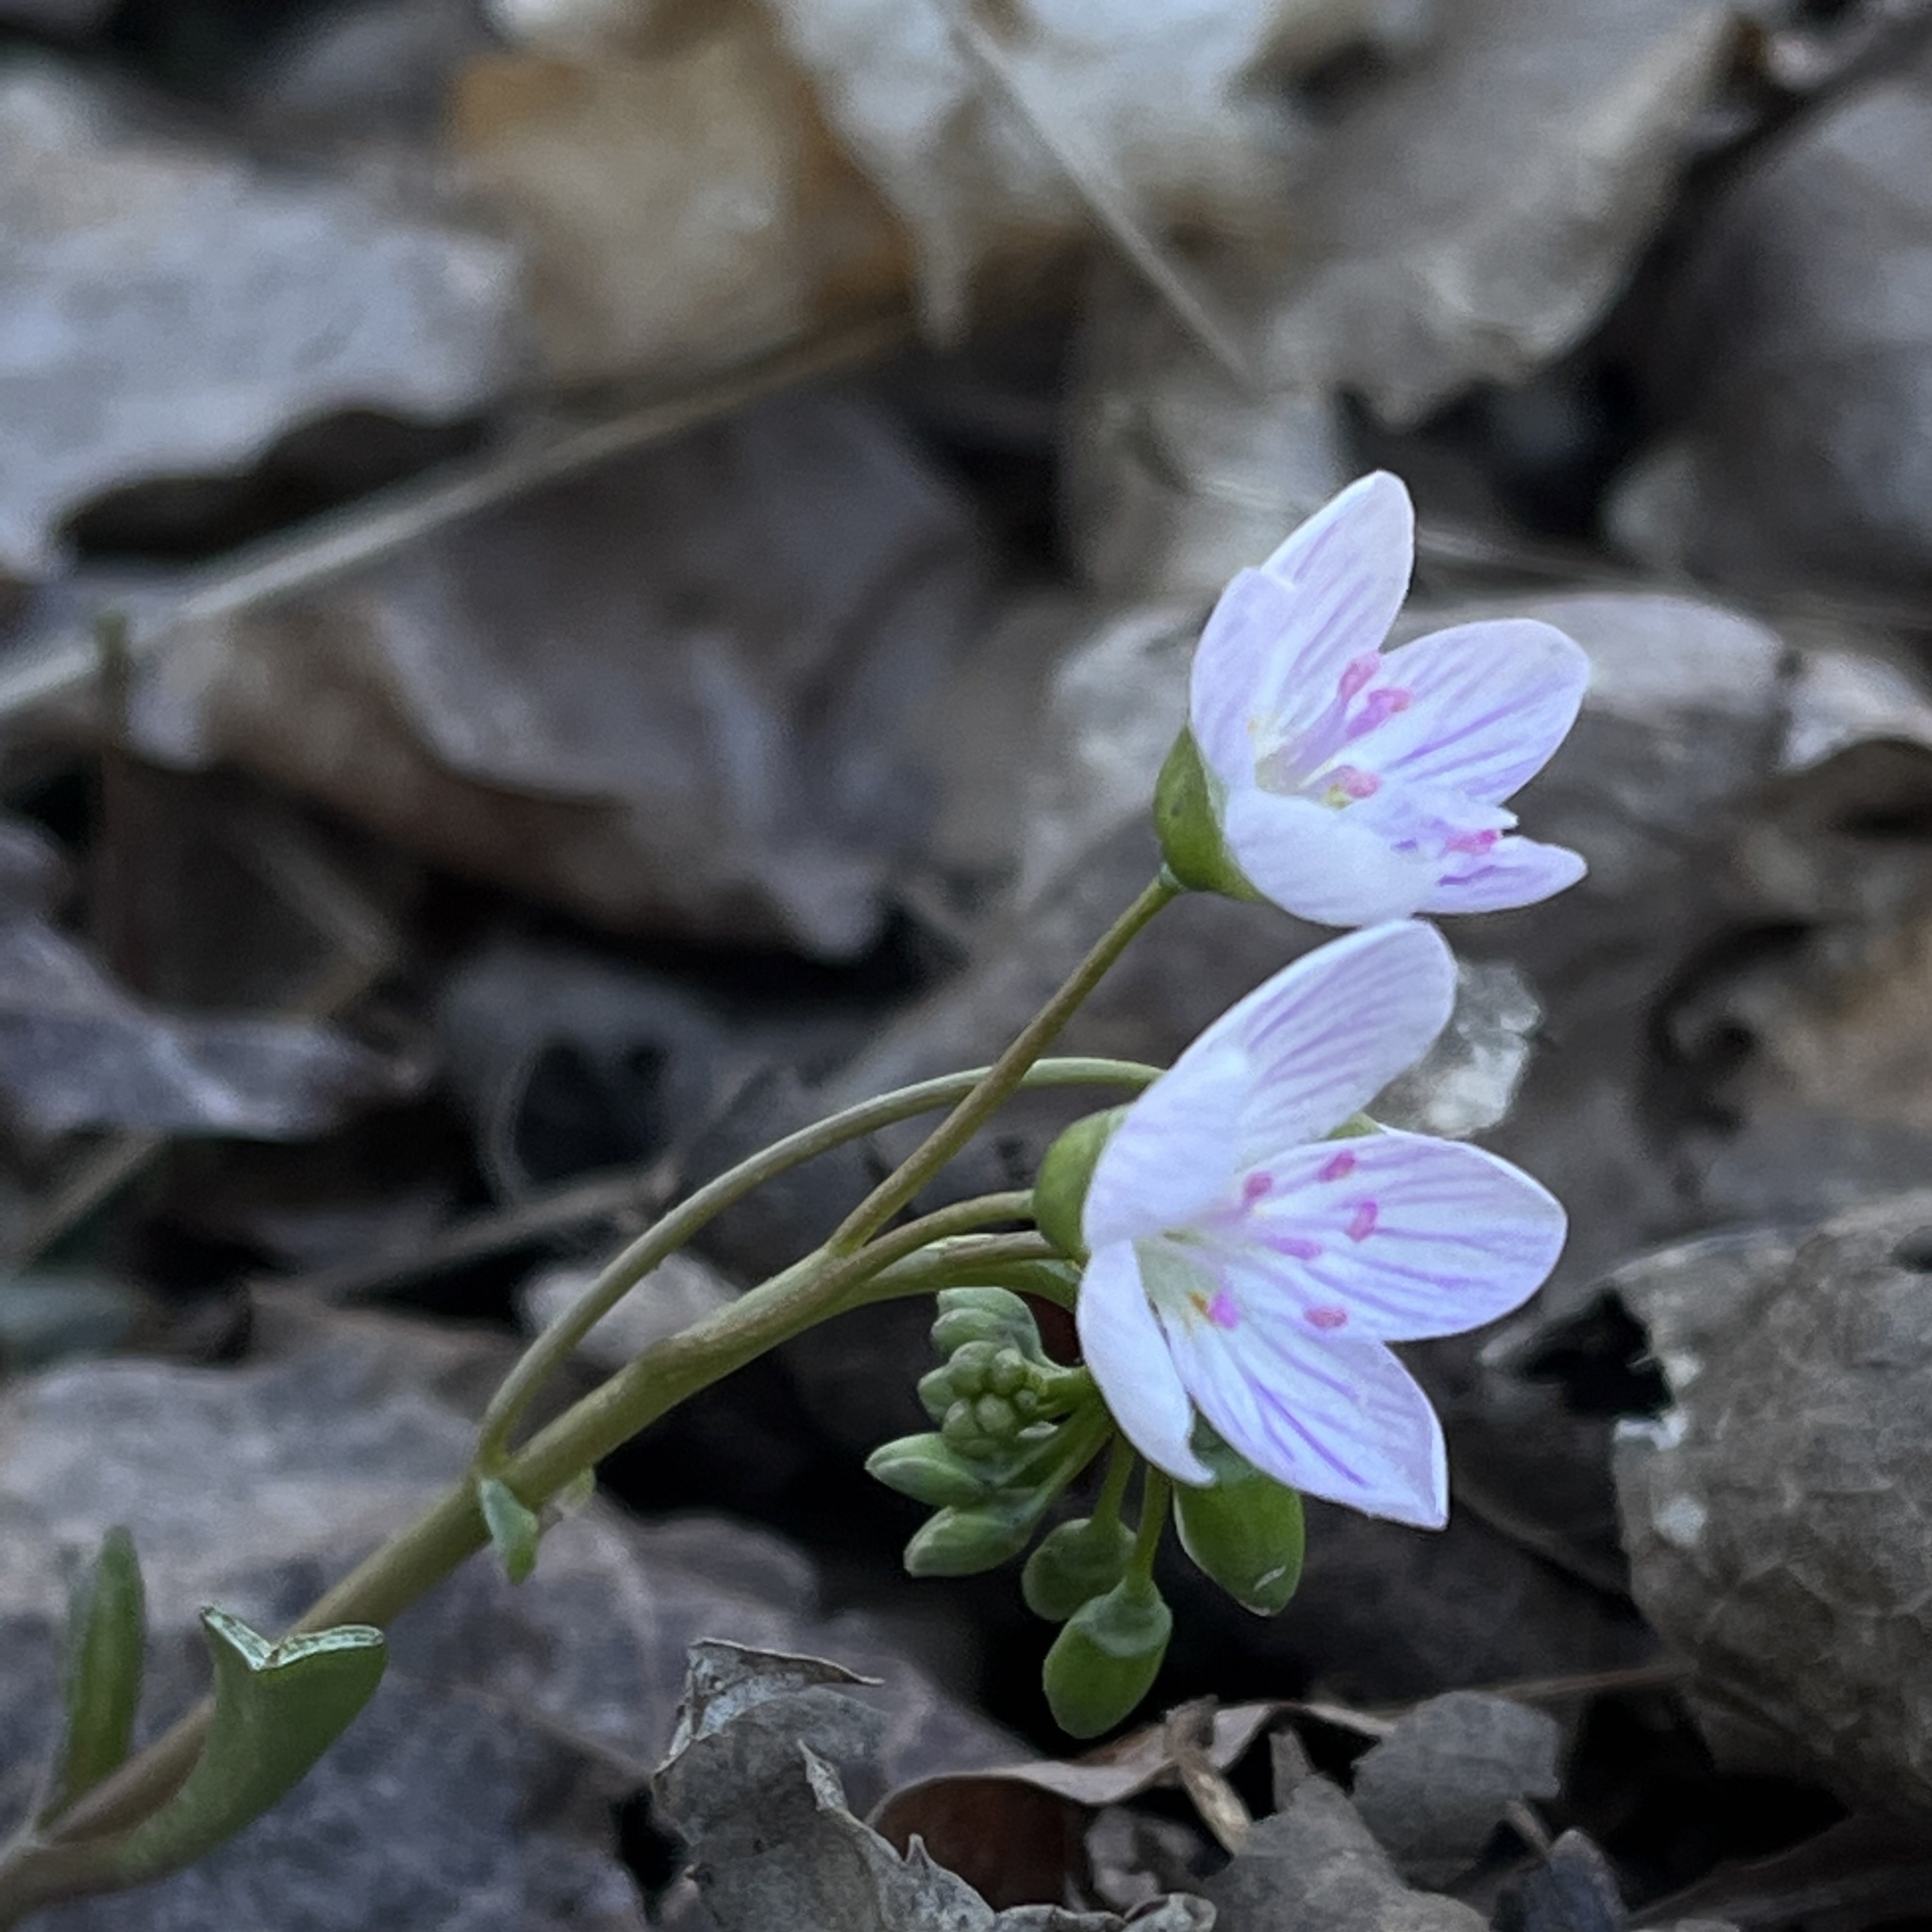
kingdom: Plantae
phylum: Tracheophyta
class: Magnoliopsida
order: Caryophyllales
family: Montiaceae
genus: Claytonia
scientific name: Claytonia virginica
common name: Virginia springbeauty
